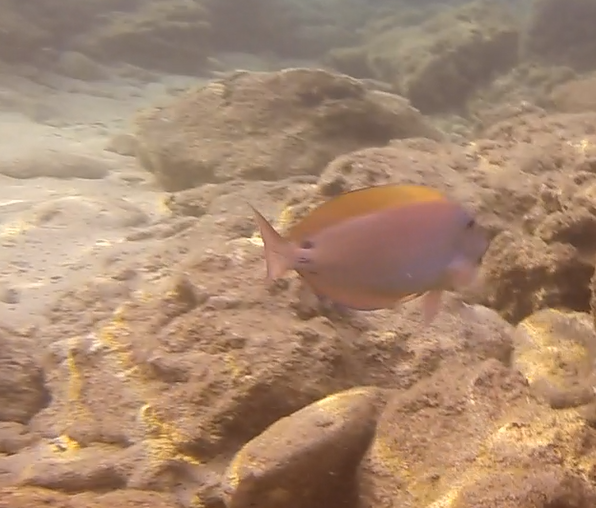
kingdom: Animalia
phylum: Chordata
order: Perciformes
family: Acanthuridae
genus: Acanthurus
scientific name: Acanthurus nigrofuscus
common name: Blackspot surgeonfish
